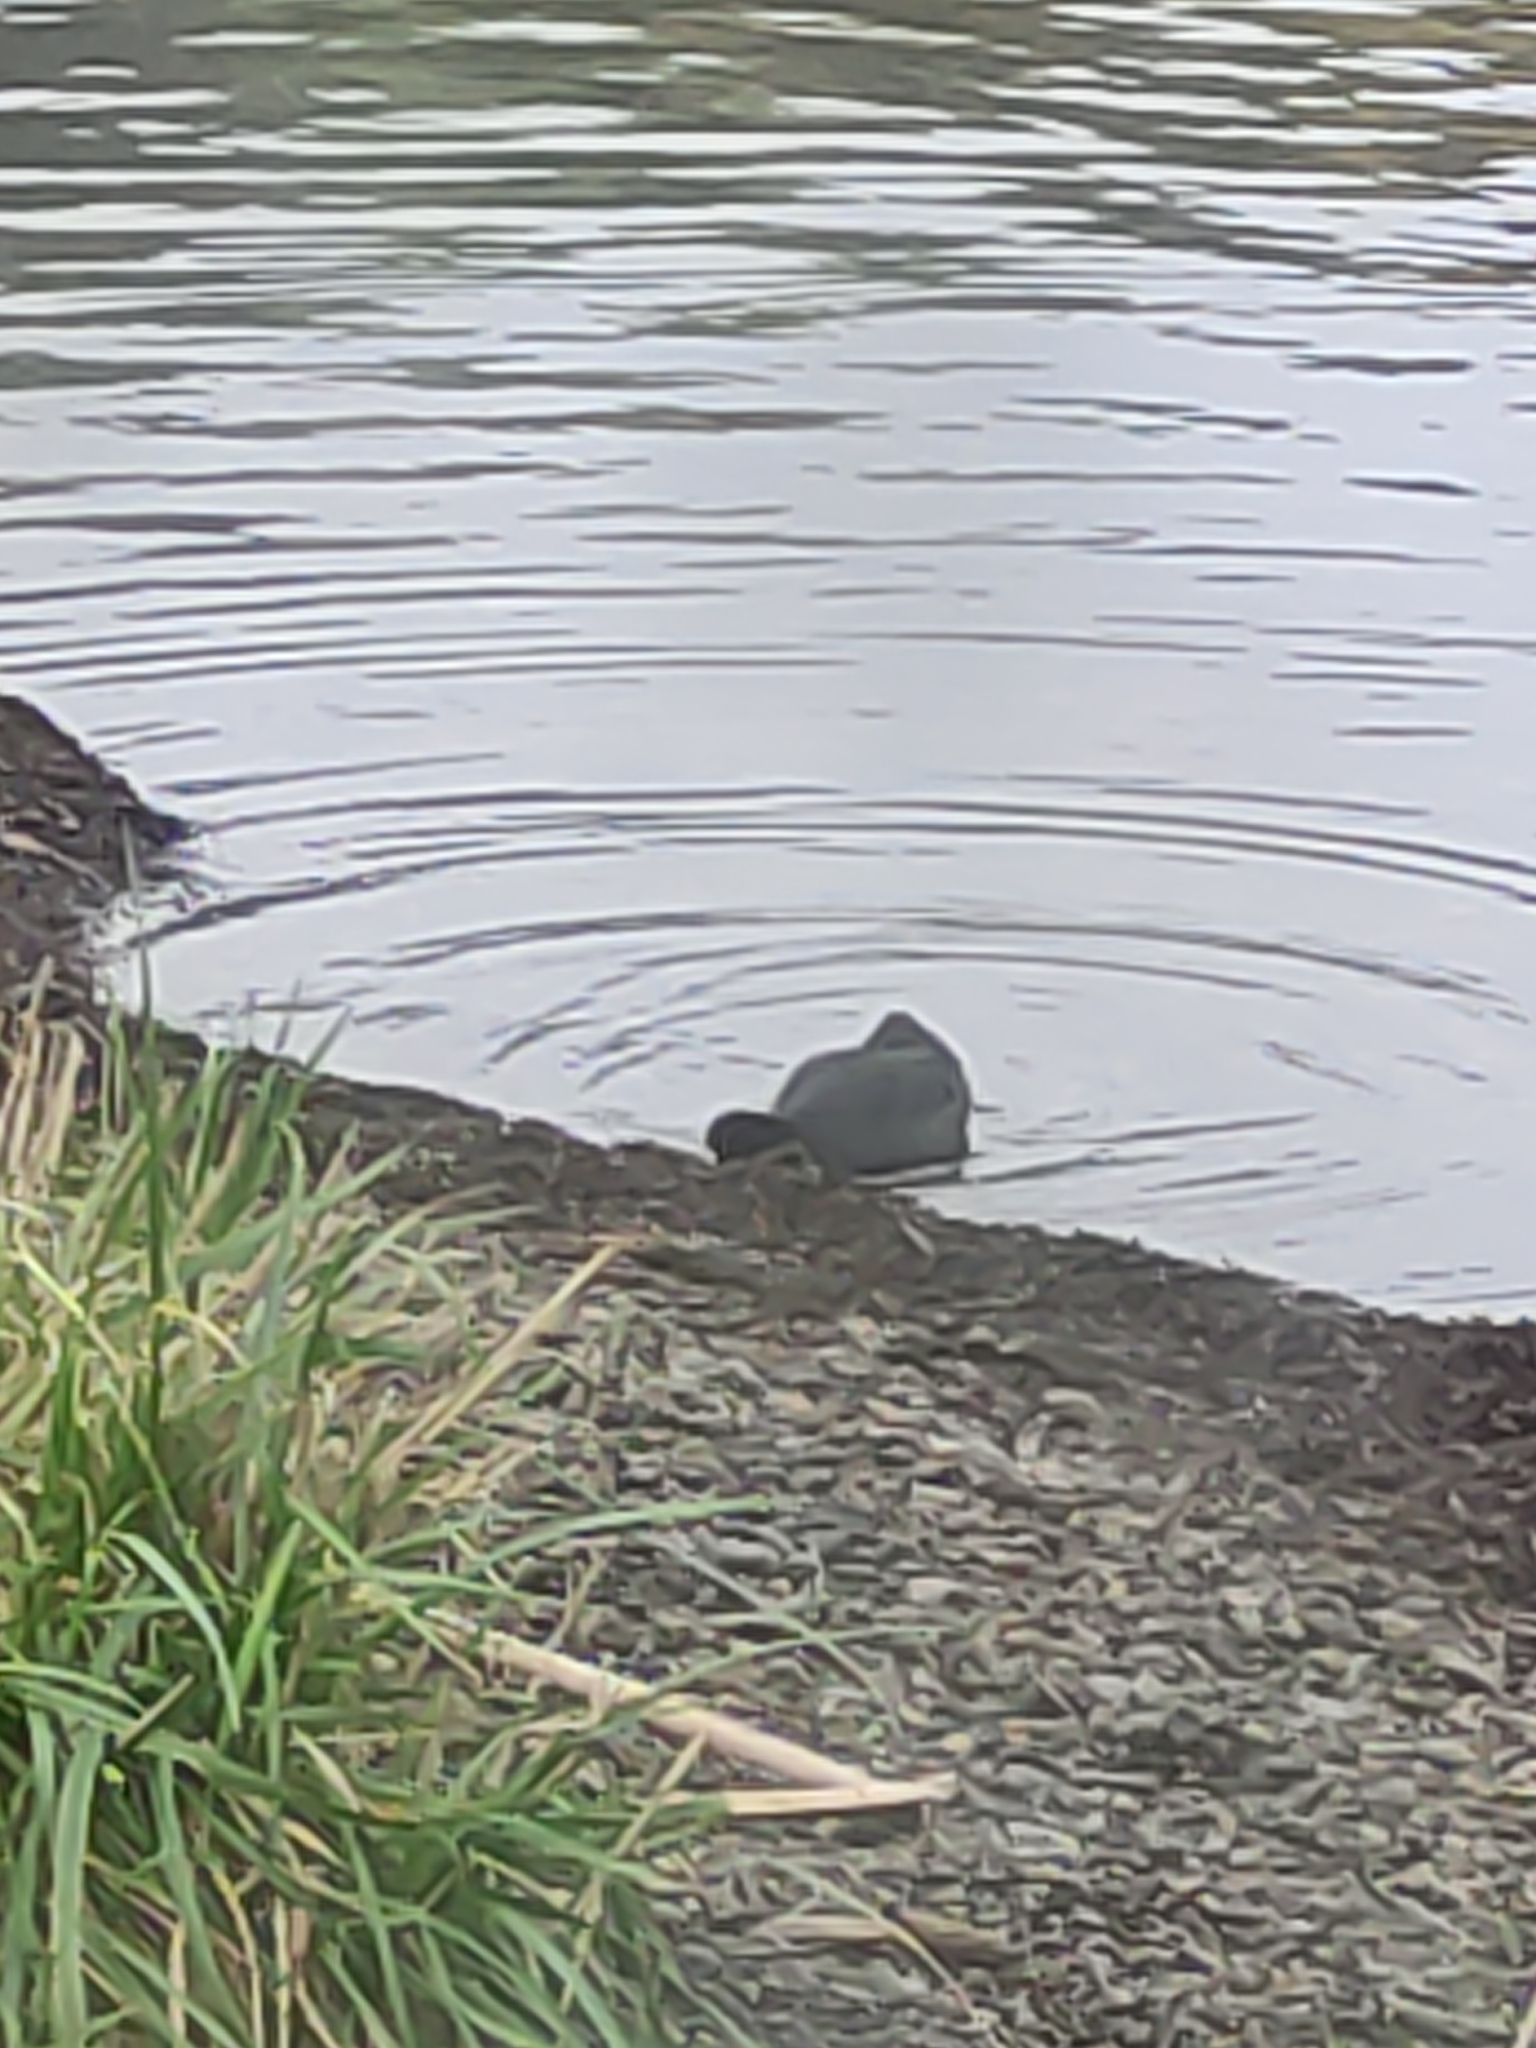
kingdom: Animalia
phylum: Chordata
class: Aves
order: Gruiformes
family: Rallidae
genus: Fulica
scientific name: Fulica atra
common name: Eurasian coot
